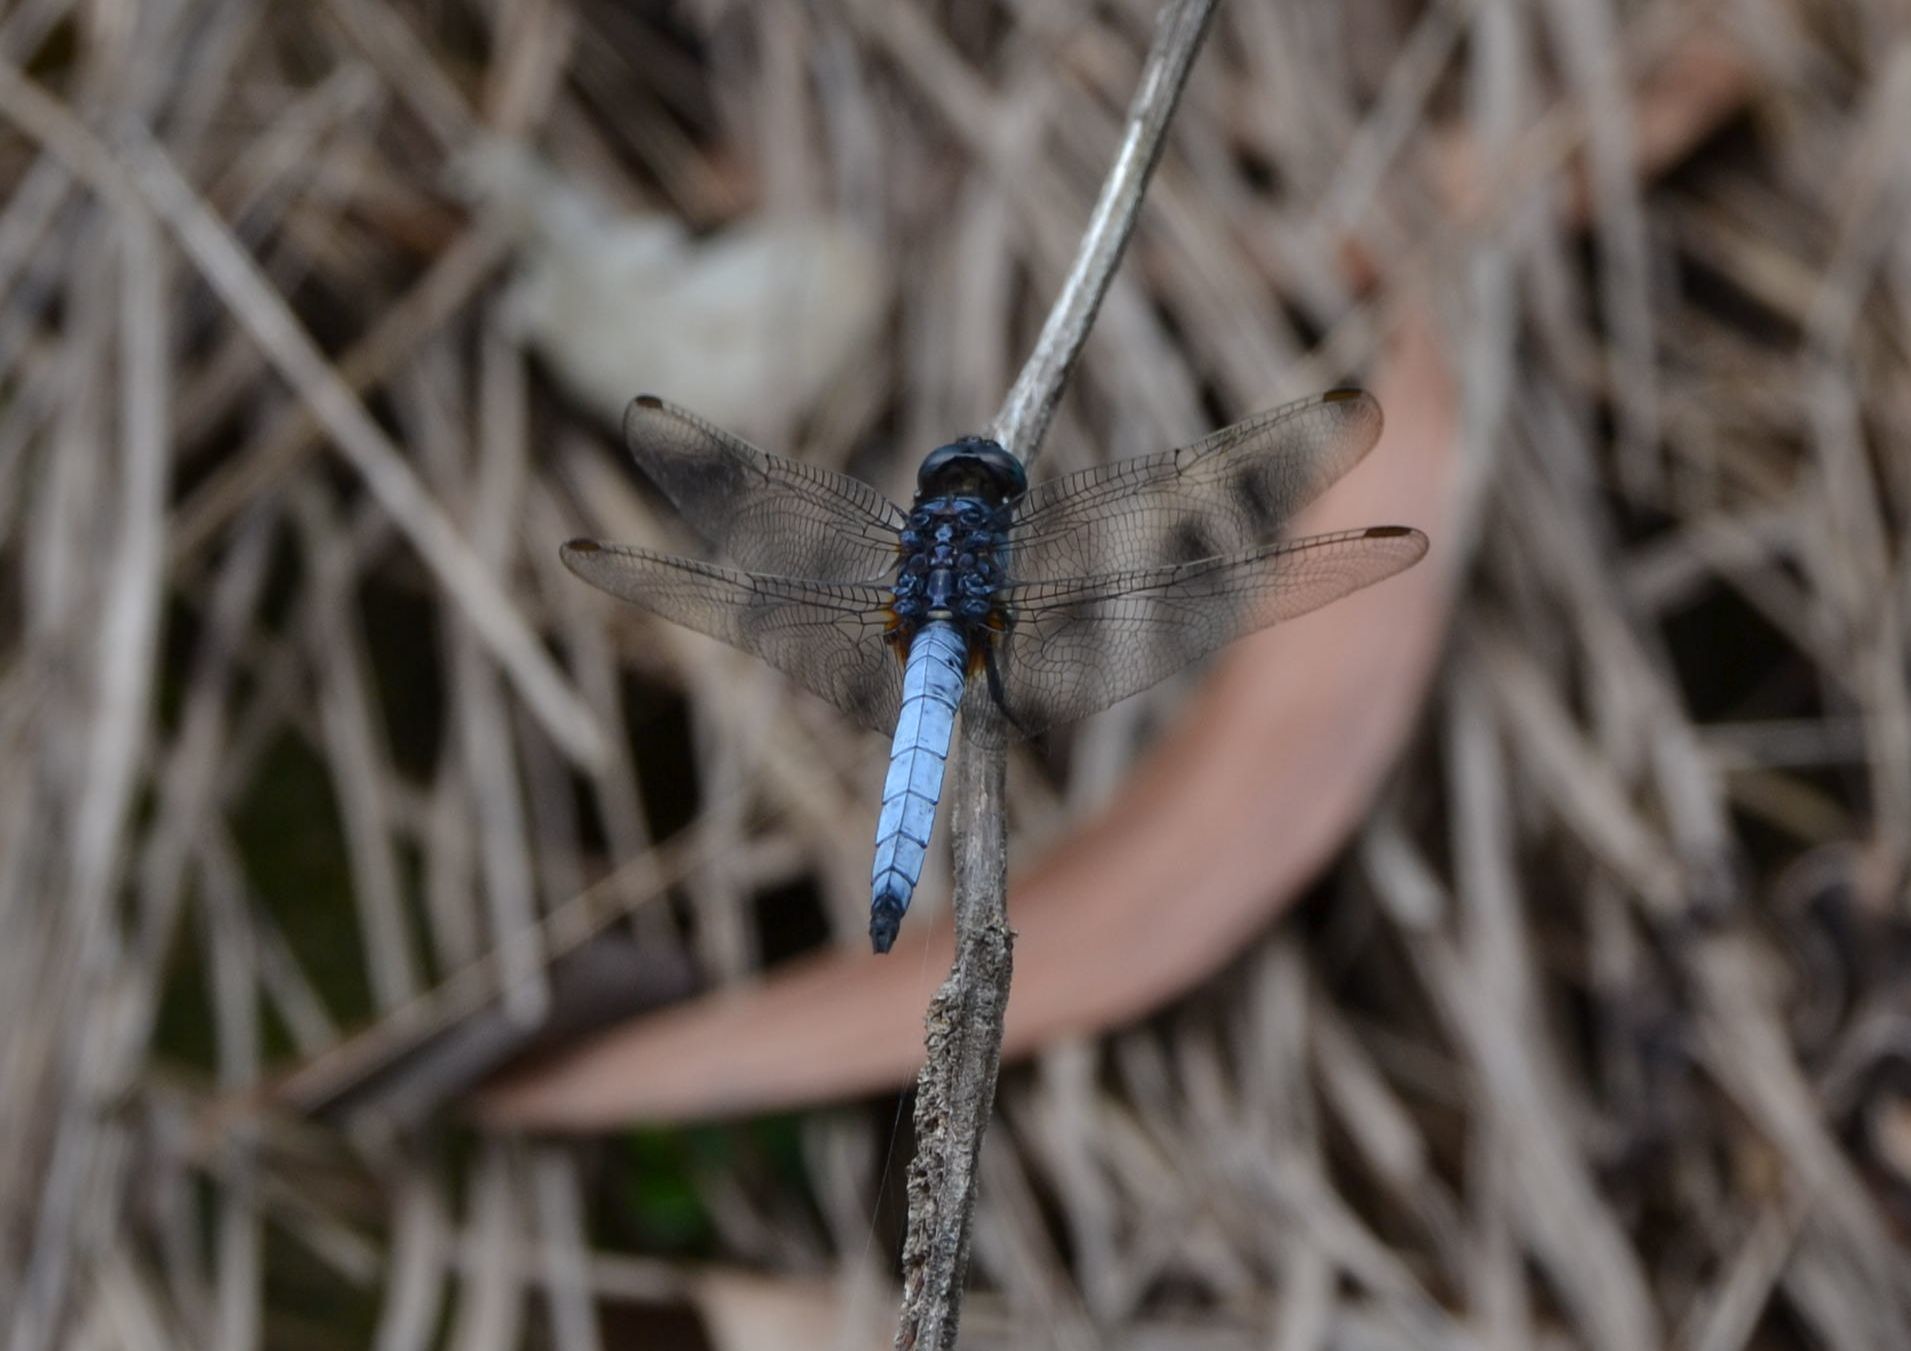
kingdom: Animalia
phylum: Arthropoda
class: Insecta
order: Odonata
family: Libellulidae
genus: Orthetrum
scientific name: Orthetrum glaucum
